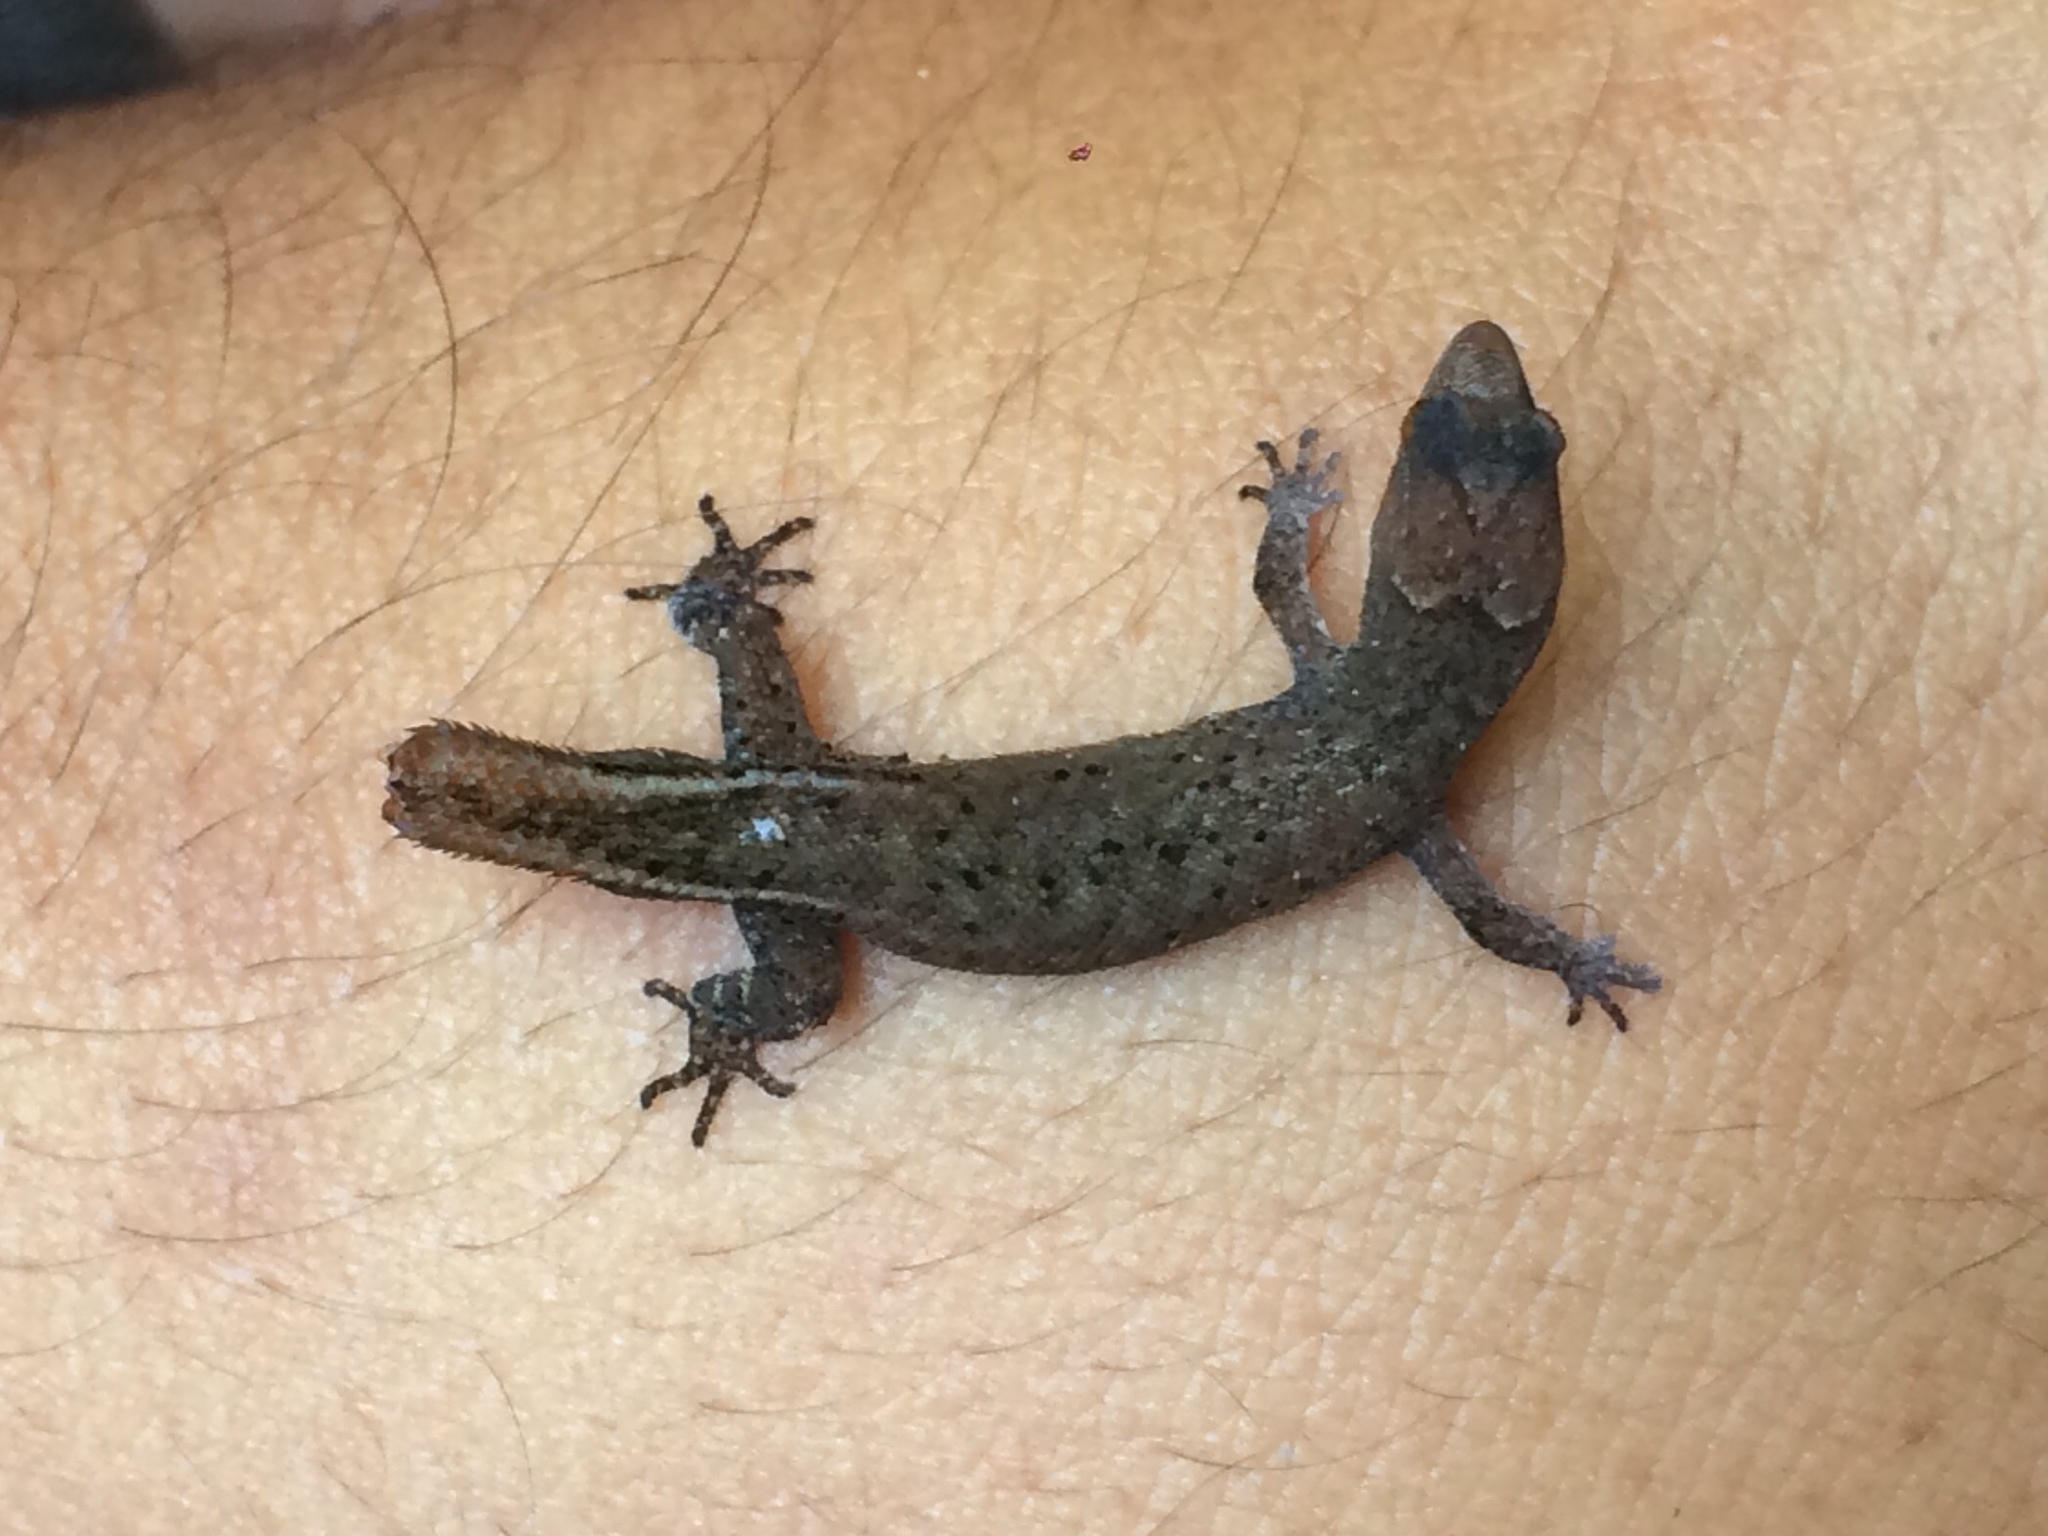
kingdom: Animalia
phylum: Chordata
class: Squamata
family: Sphaerodactylidae
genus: Coleodactylus
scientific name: Coleodactylus meridionalis
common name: Meridian gecko
